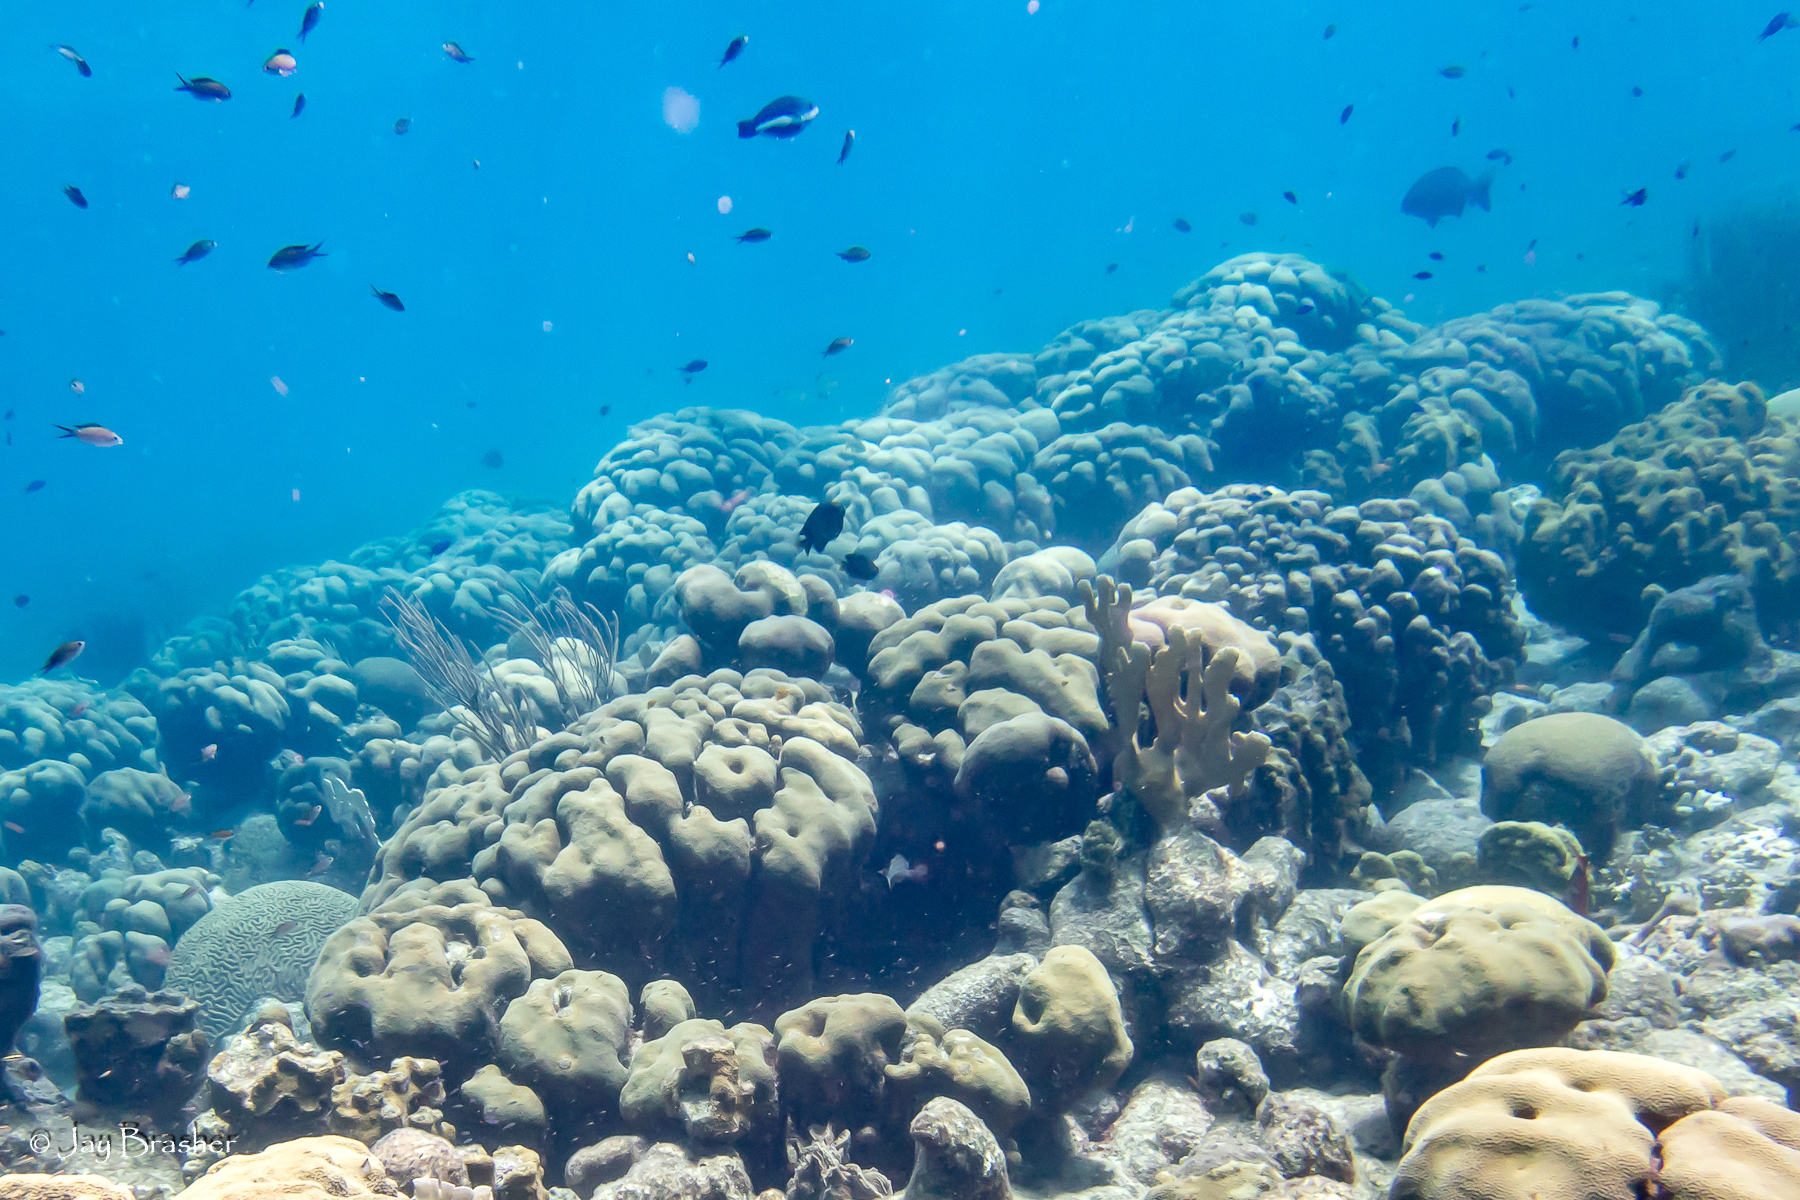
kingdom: Animalia
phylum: Cnidaria
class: Anthozoa
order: Scleractinia
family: Merulinidae
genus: Orbicella
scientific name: Orbicella annularis
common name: Boulder star coral
